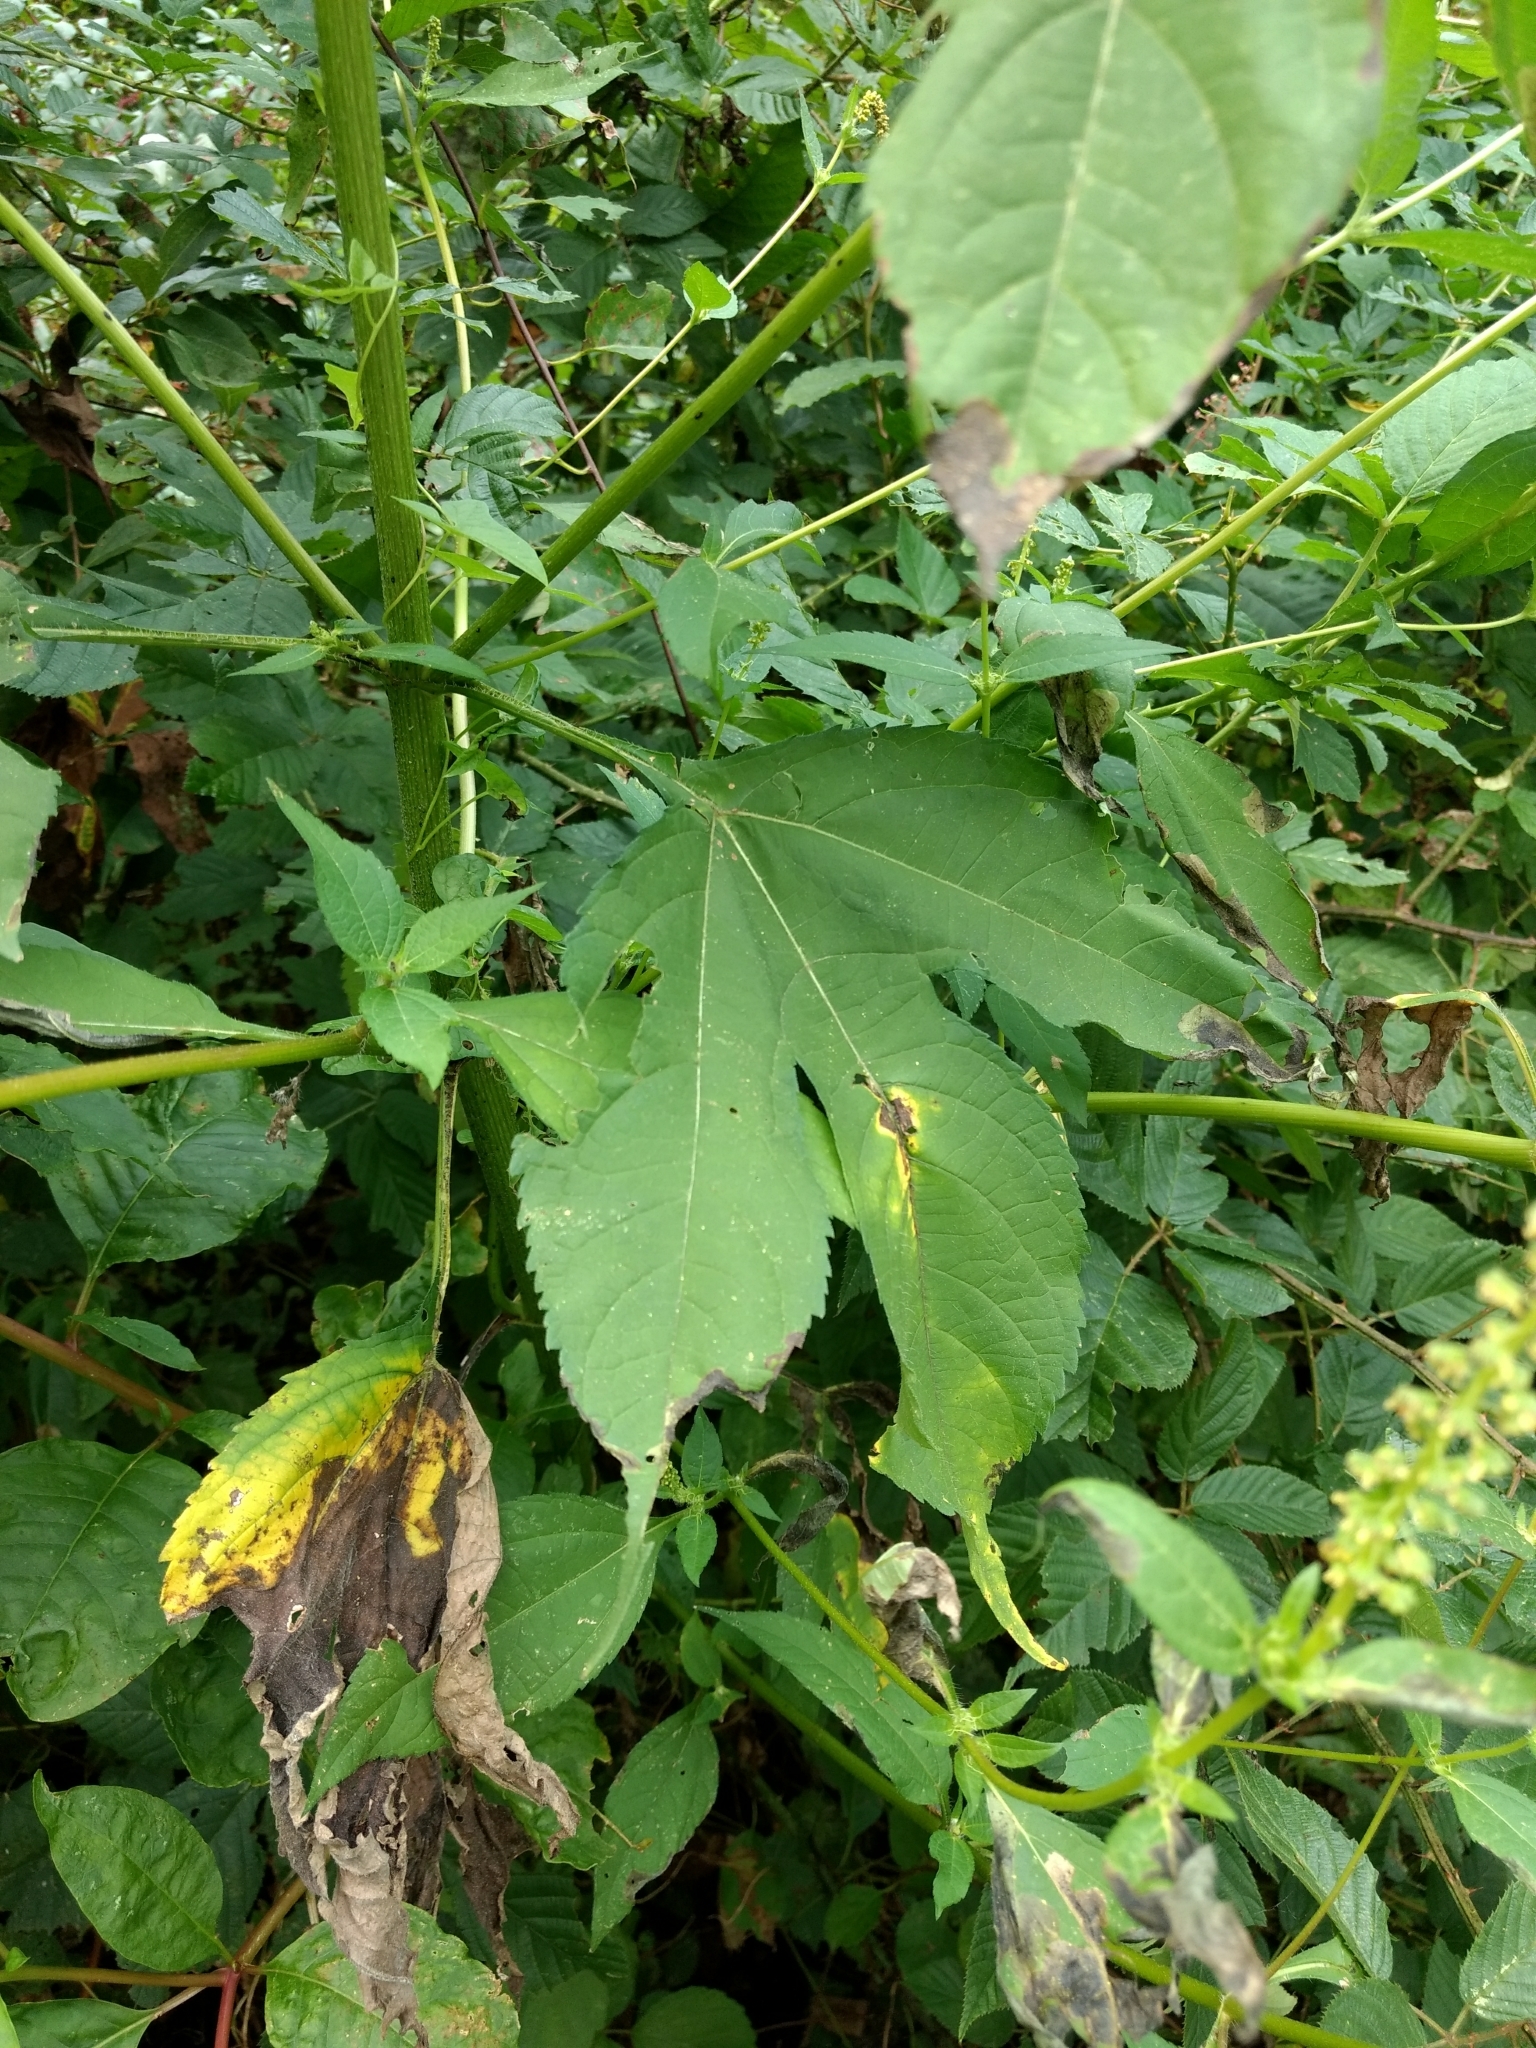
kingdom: Plantae
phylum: Tracheophyta
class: Magnoliopsida
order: Asterales
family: Asteraceae
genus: Ambrosia
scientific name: Ambrosia trifida
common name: Giant ragweed
